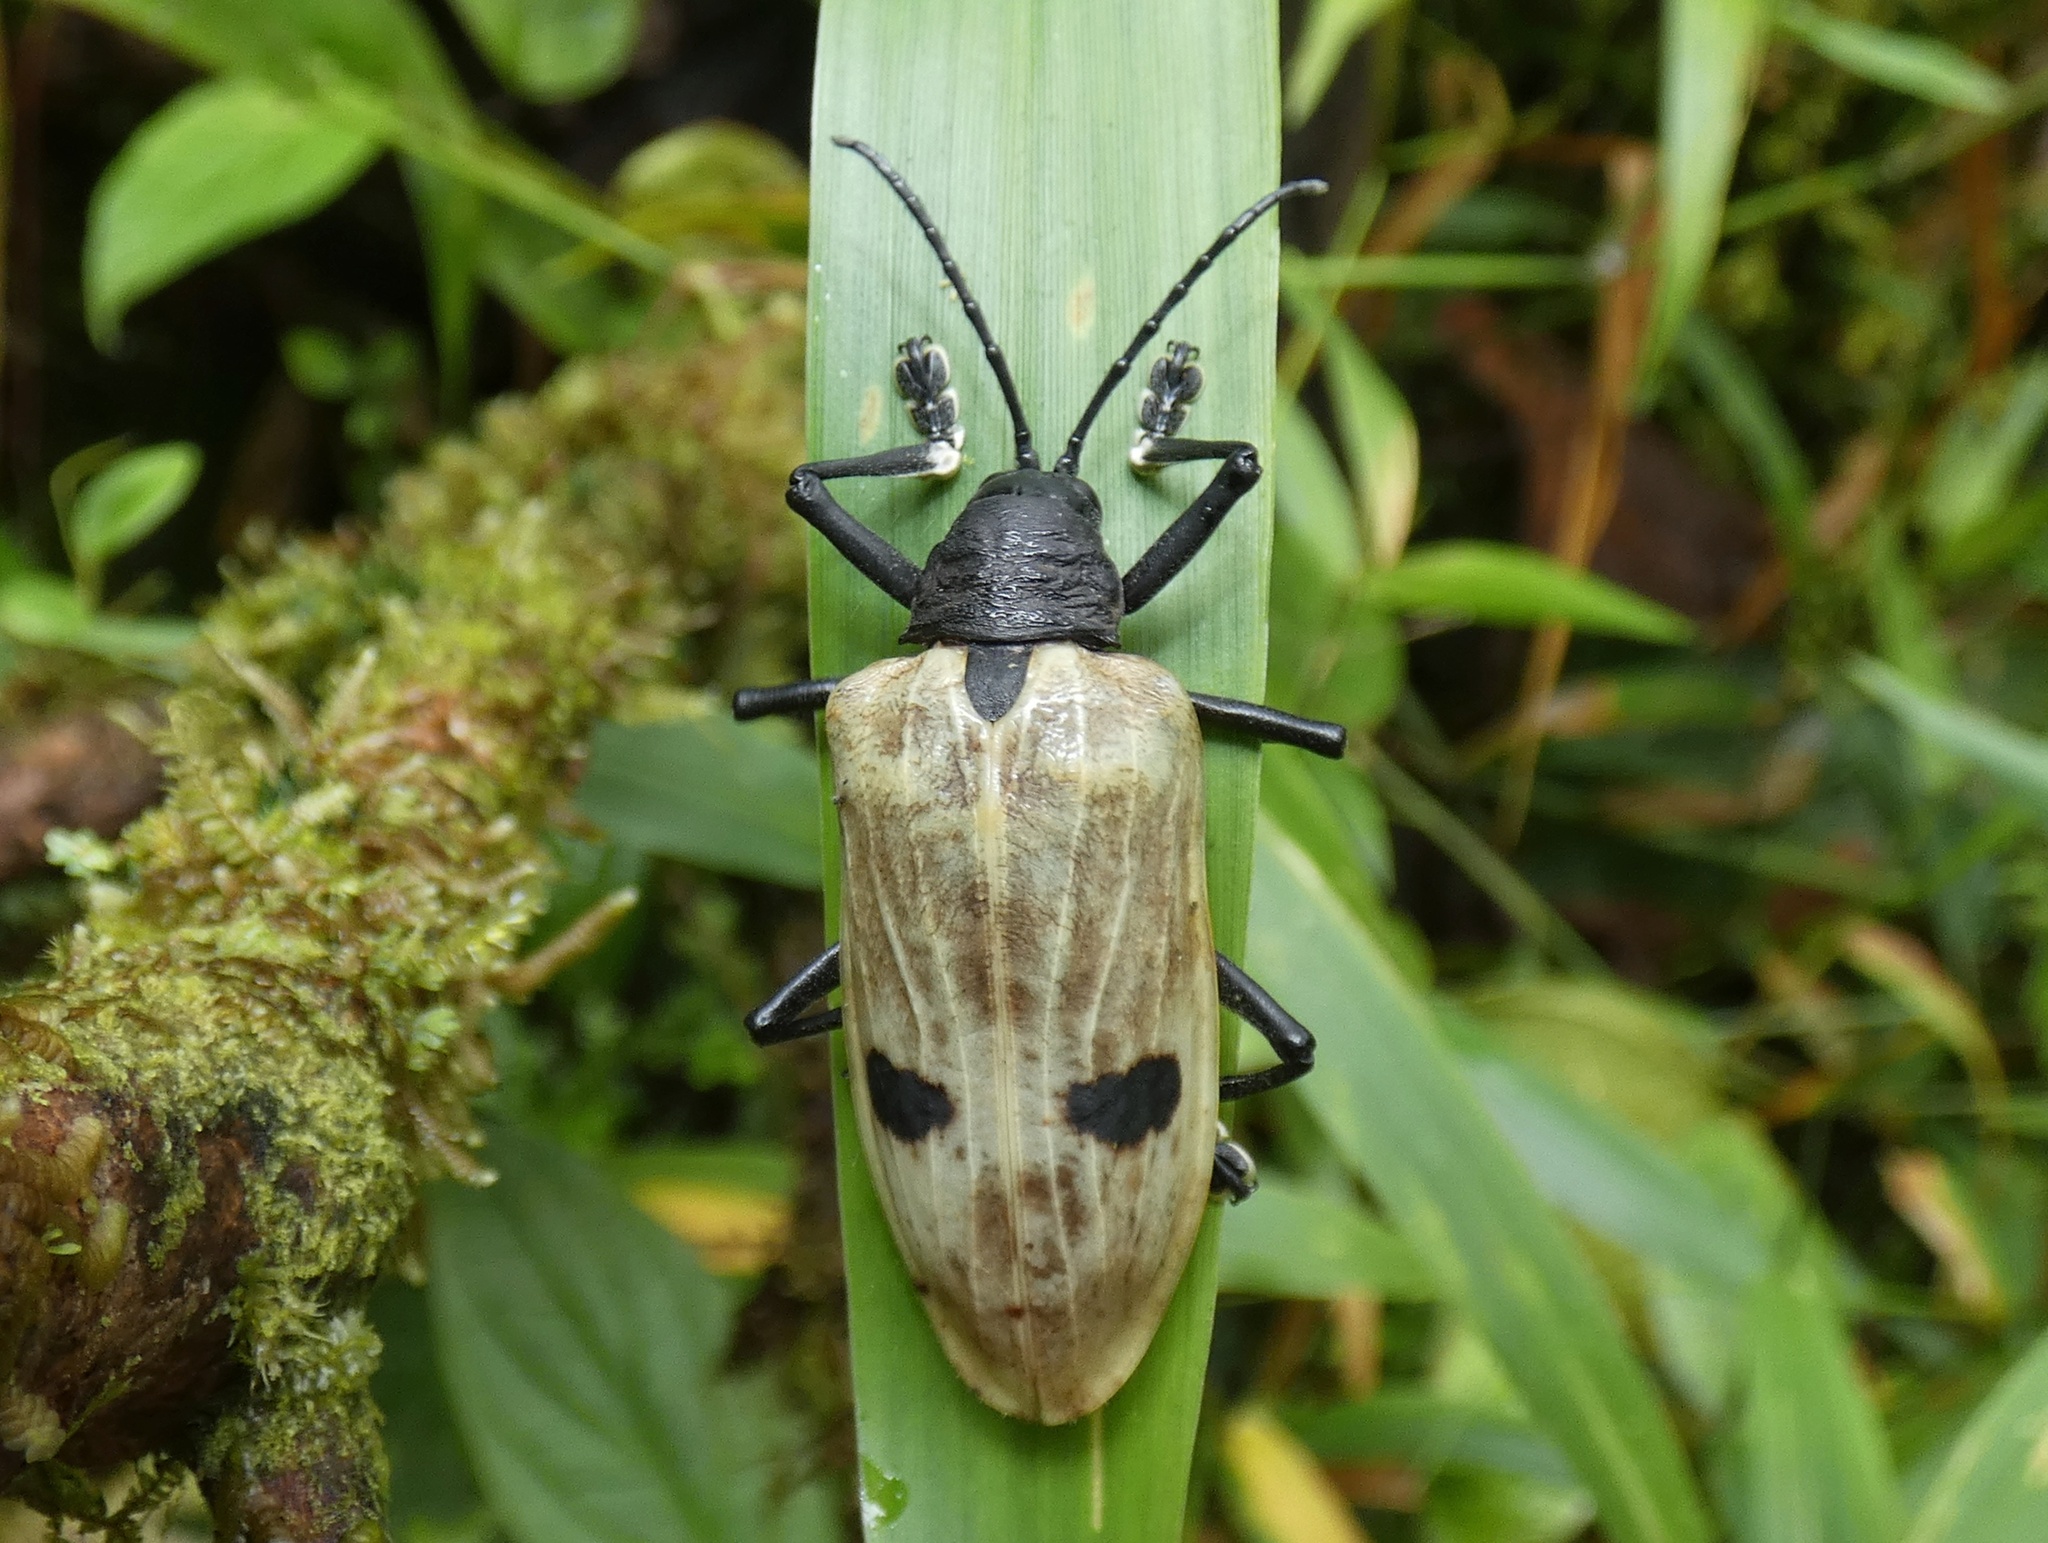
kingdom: Animalia
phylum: Arthropoda
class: Insecta
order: Coleoptera
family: Chrysomelidae
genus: Alurnus
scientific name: Alurnus boucardi
